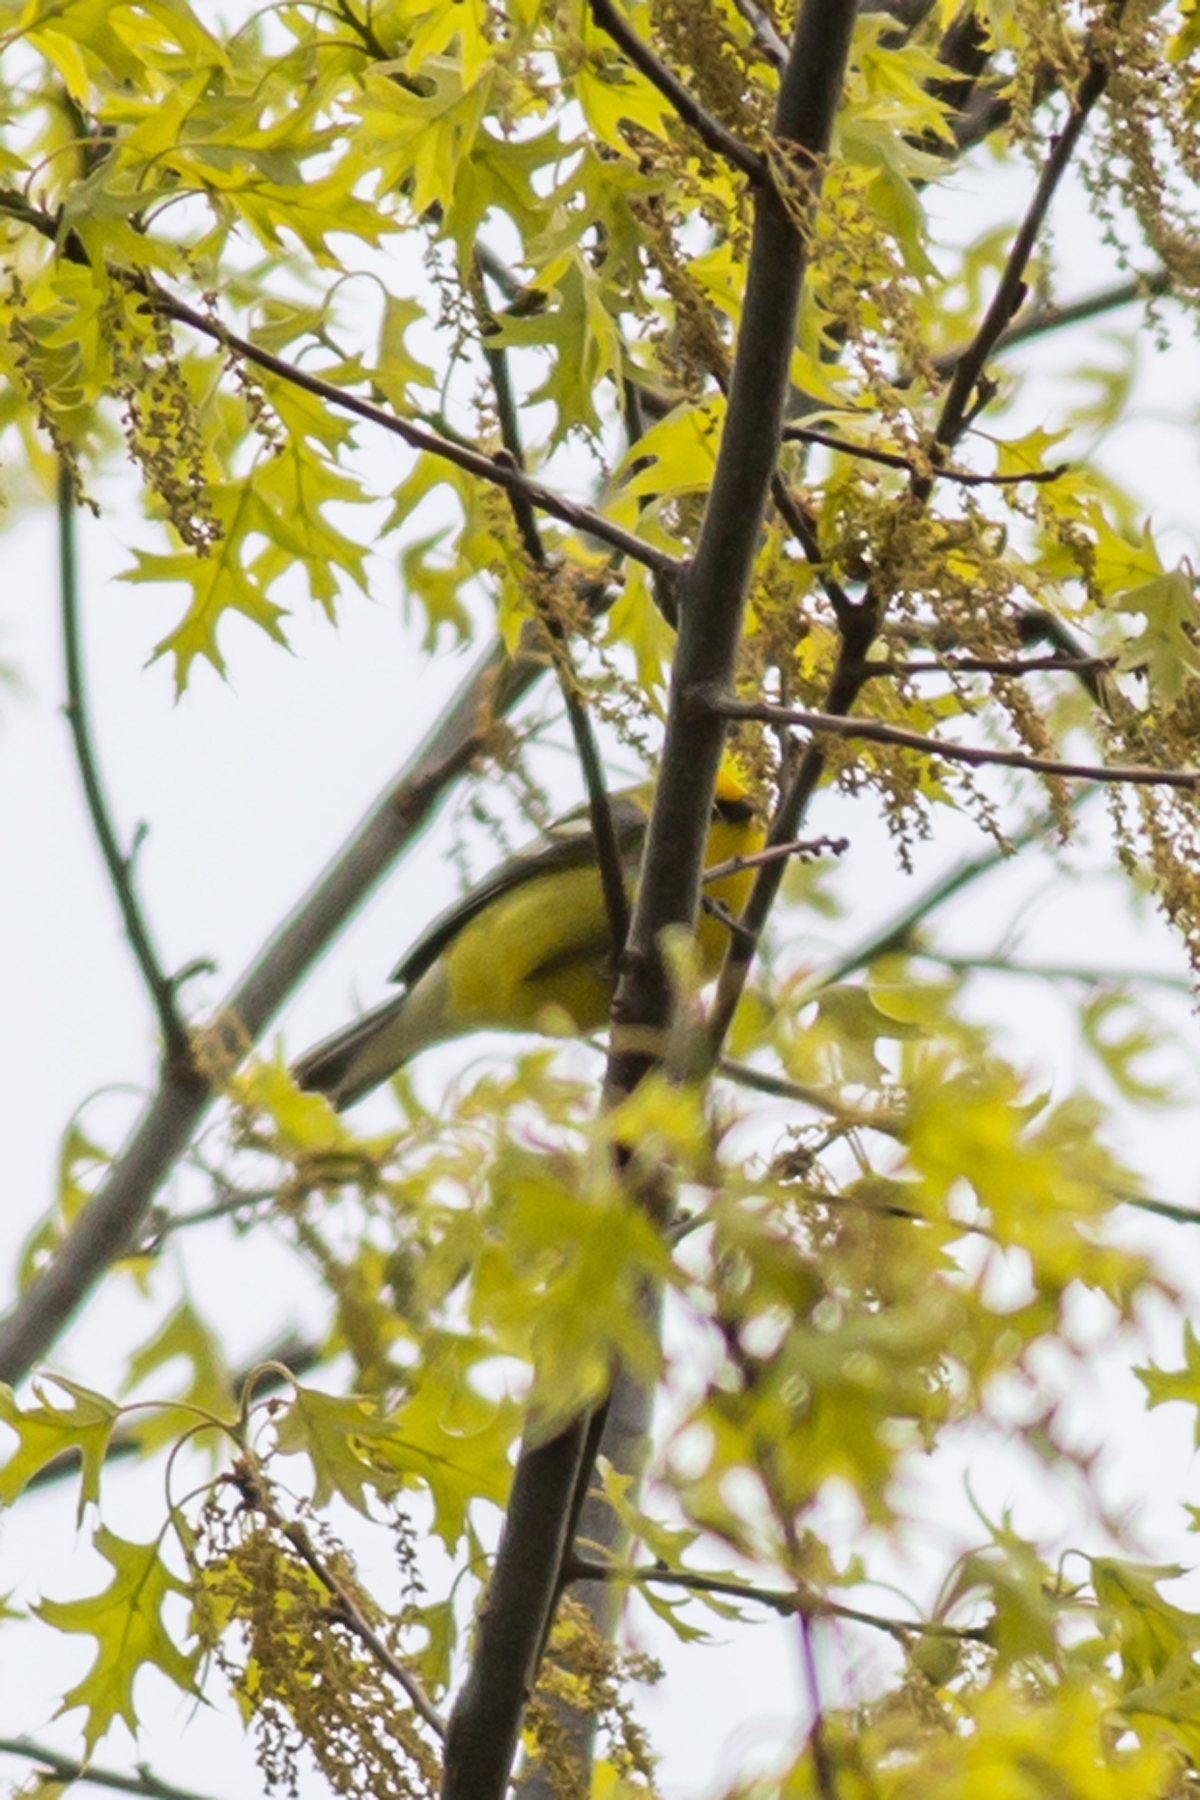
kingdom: Animalia
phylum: Chordata
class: Aves
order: Passeriformes
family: Parulidae
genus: Vermivora
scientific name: Vermivora cyanoptera
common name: Blue-winged warbler
